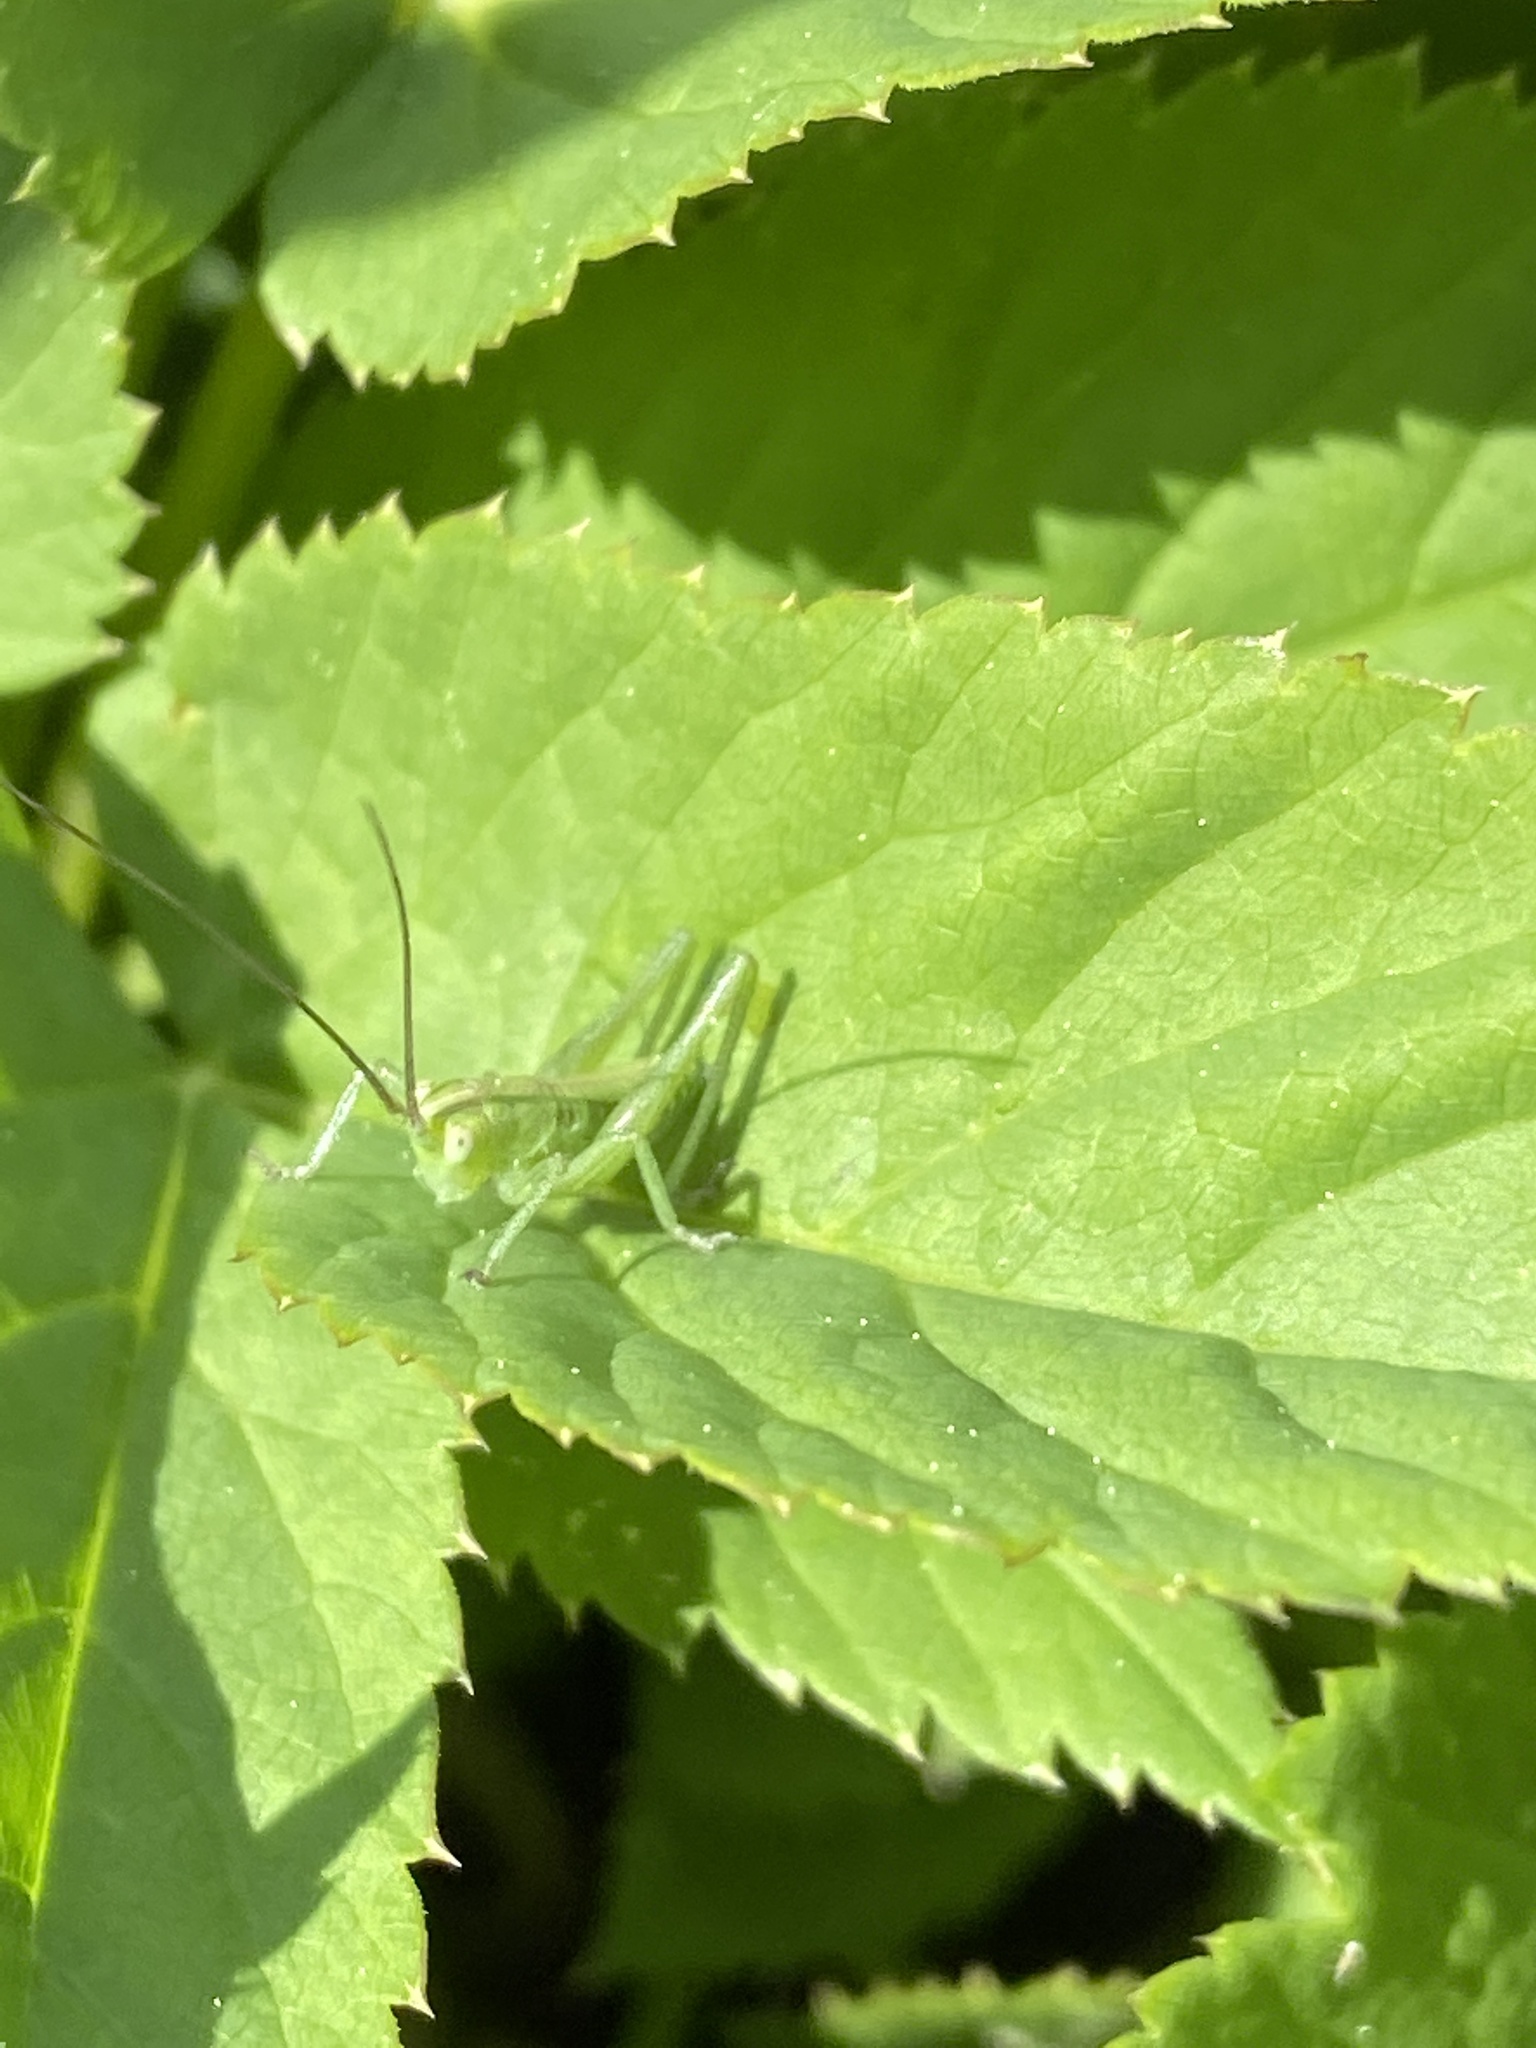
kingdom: Animalia
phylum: Arthropoda
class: Insecta
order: Orthoptera
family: Tettigoniidae
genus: Tettigonia
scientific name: Tettigonia viridissima
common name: Great green bush-cricket
